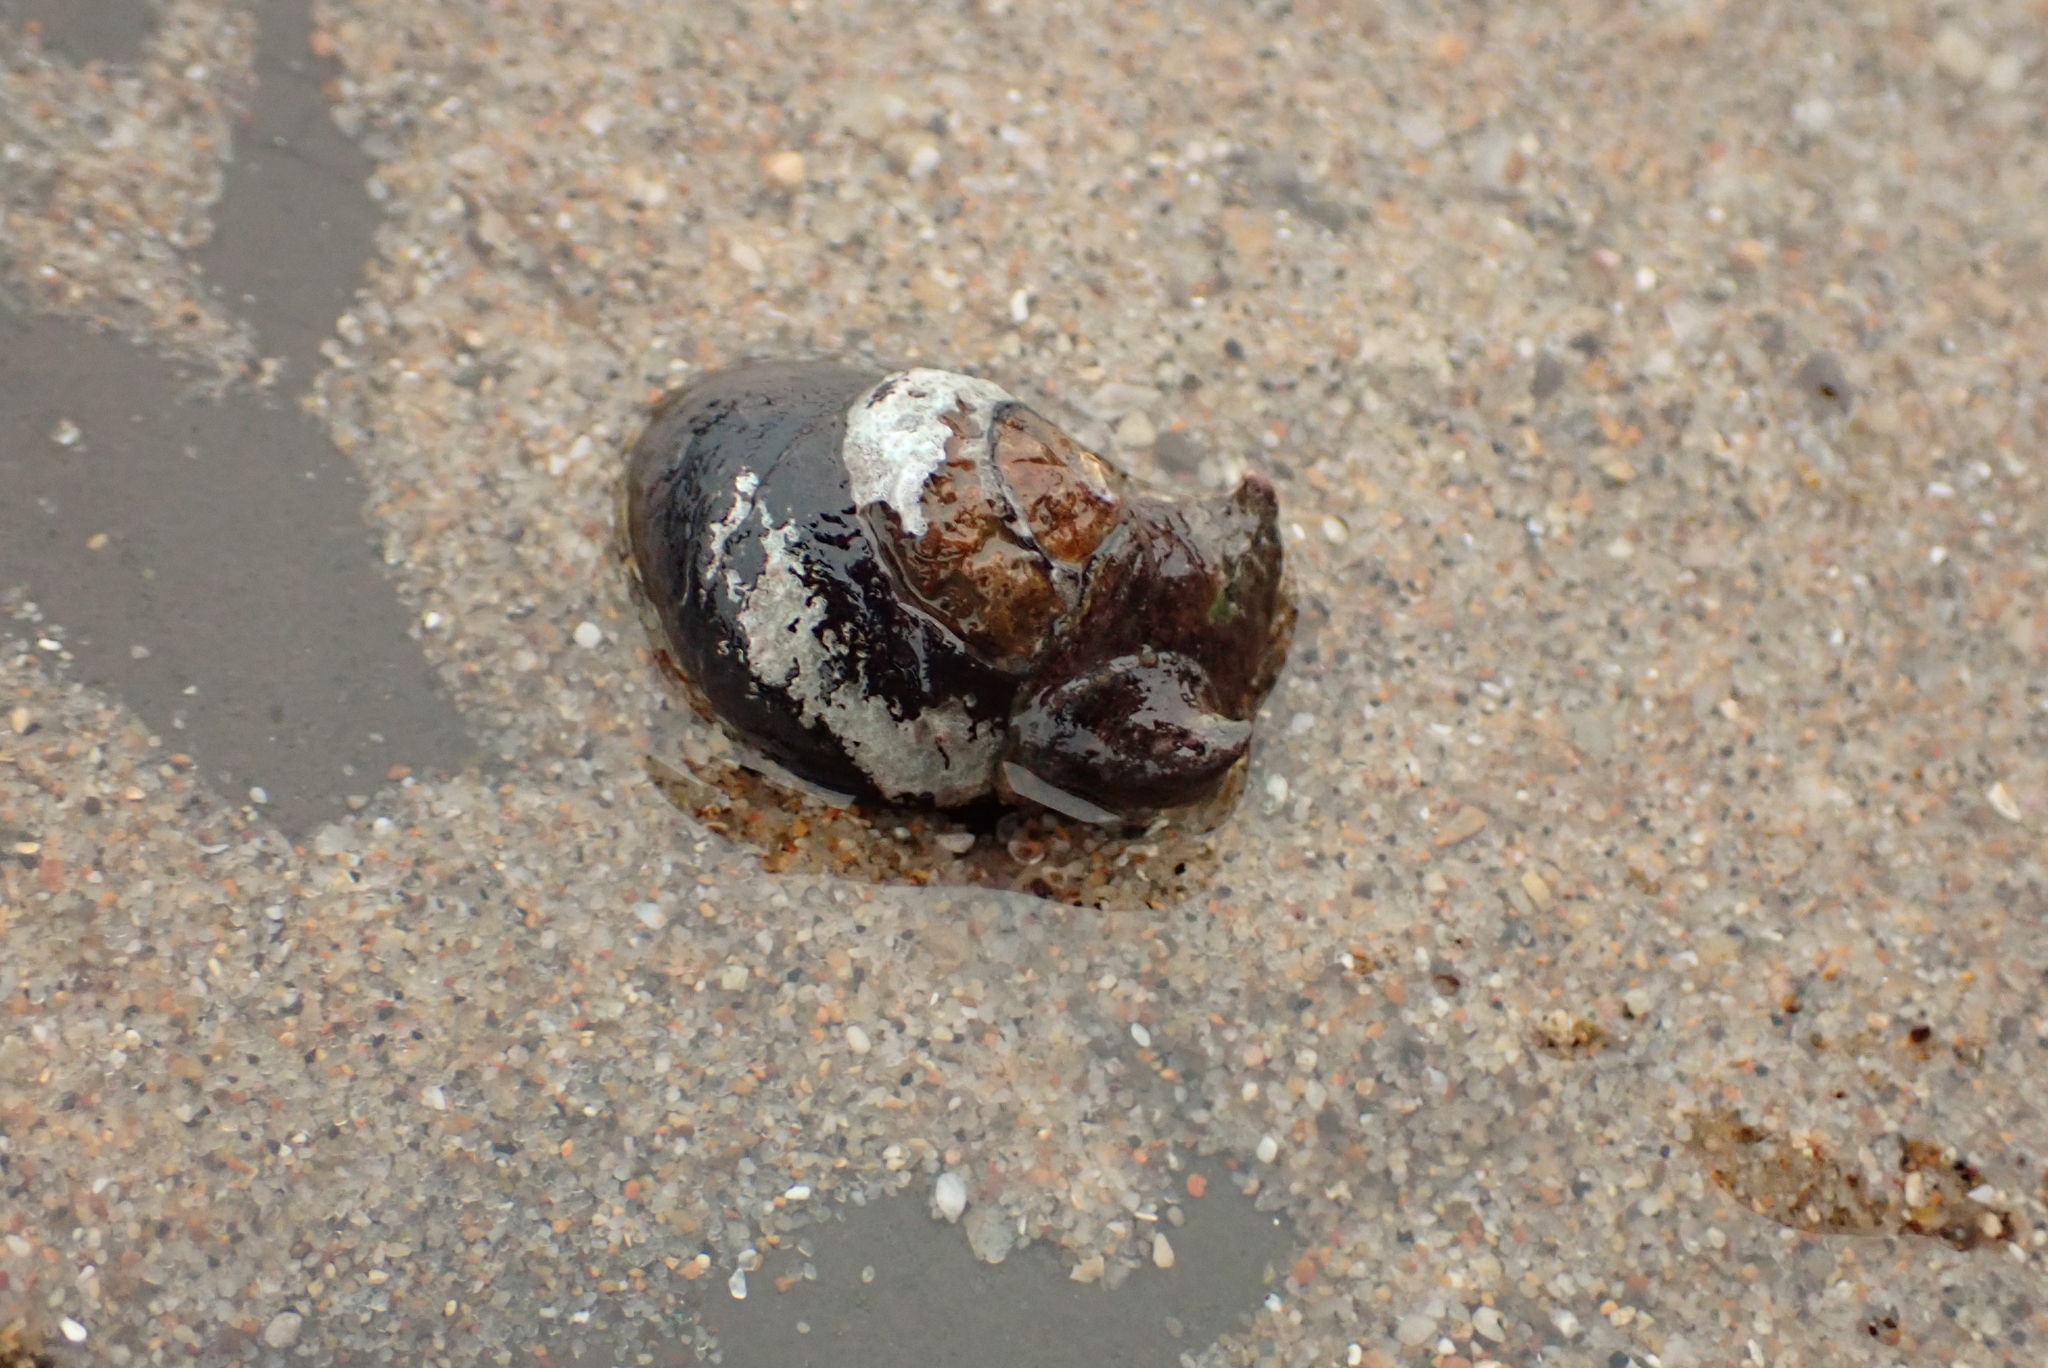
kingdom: Animalia
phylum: Mollusca
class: Gastropoda
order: Trochida
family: Tegulidae
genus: Tegula
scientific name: Tegula funebralis
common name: Black tegula
